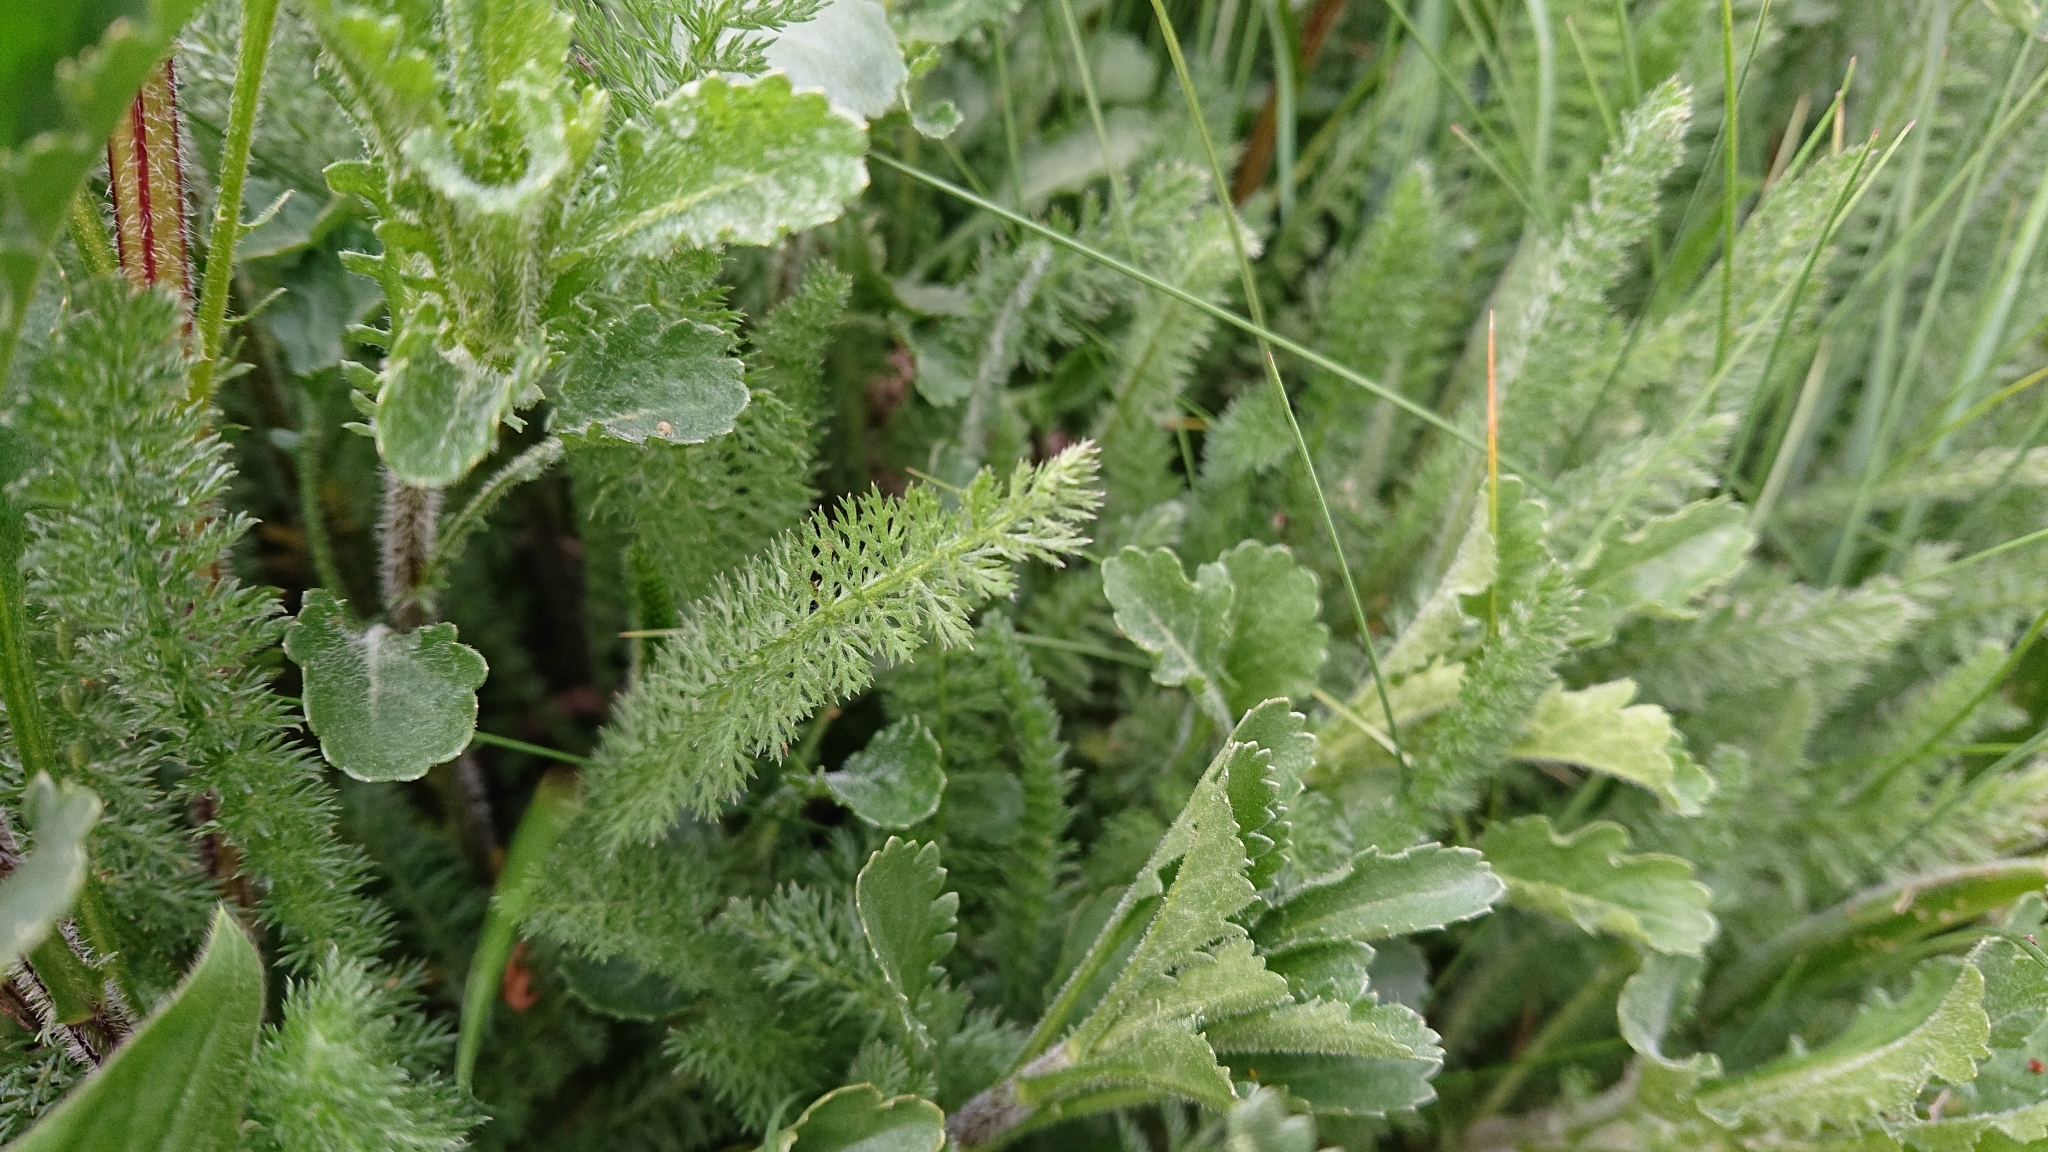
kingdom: Plantae
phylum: Tracheophyta
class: Magnoliopsida
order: Asterales
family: Asteraceae
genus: Achillea
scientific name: Achillea millefolium
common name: Yarrow
